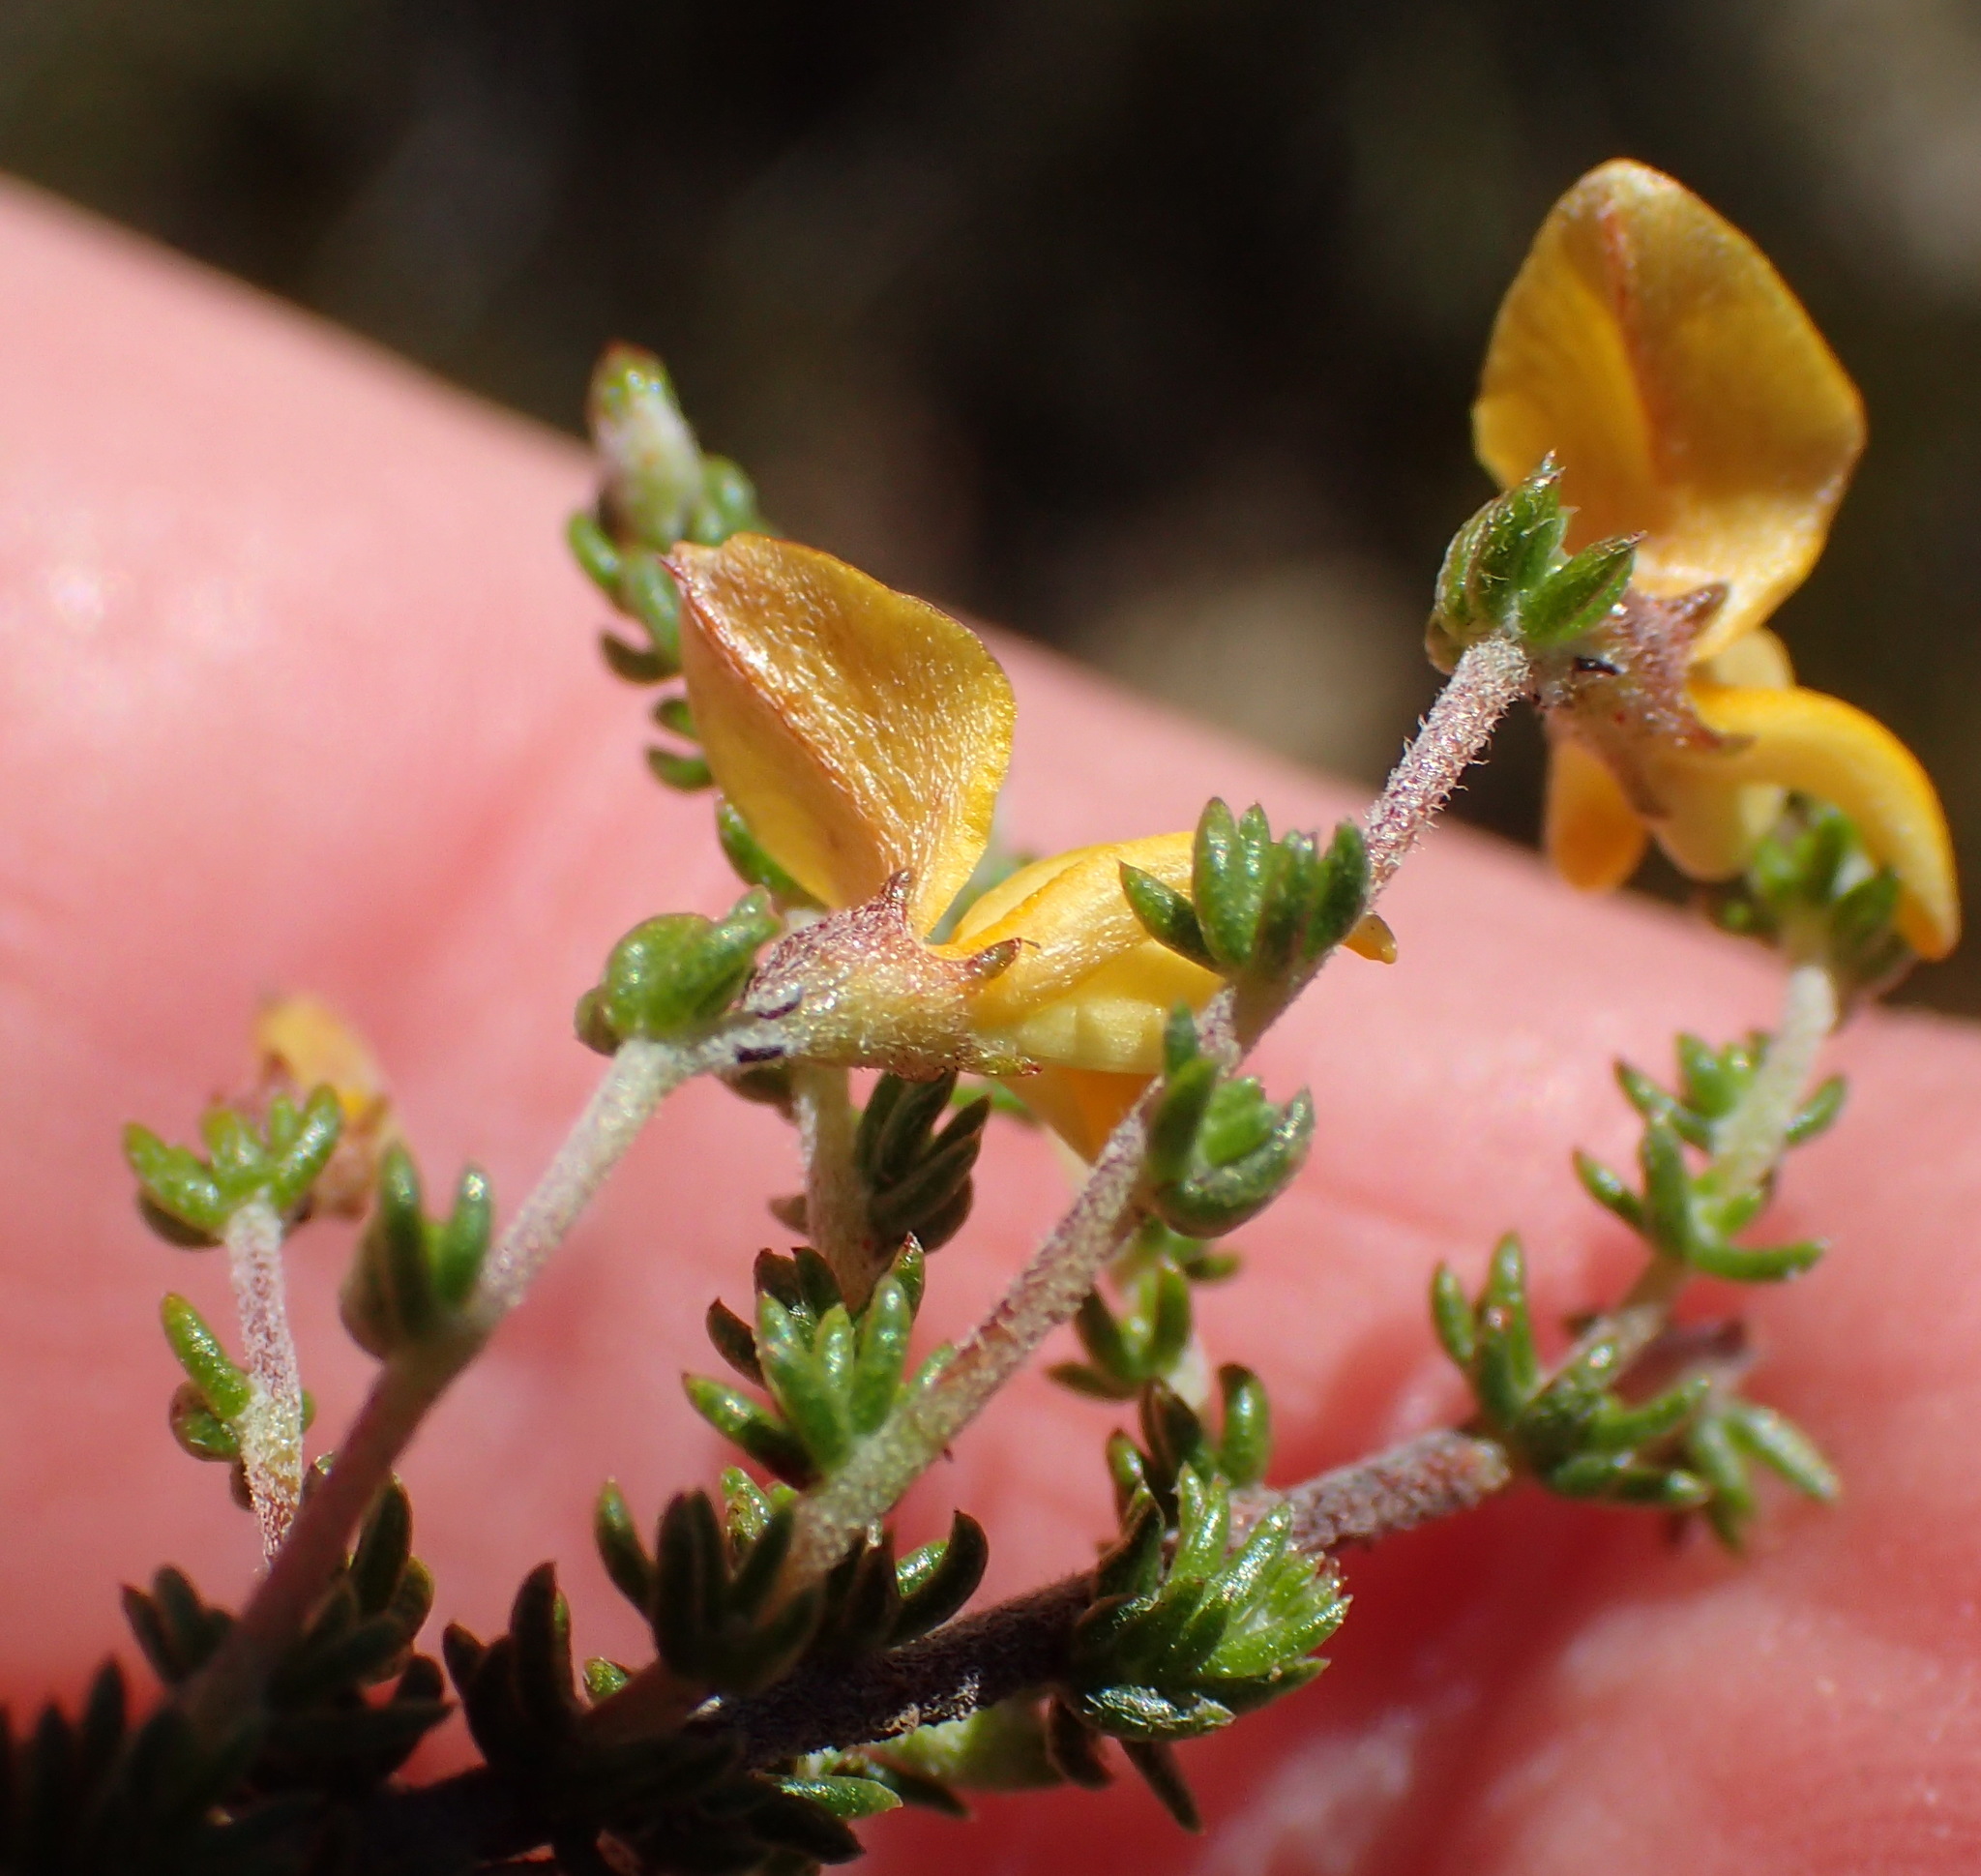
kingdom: Plantae
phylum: Tracheophyta
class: Magnoliopsida
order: Fabales
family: Fabaceae
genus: Aspalathus
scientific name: Aspalathus rubens
